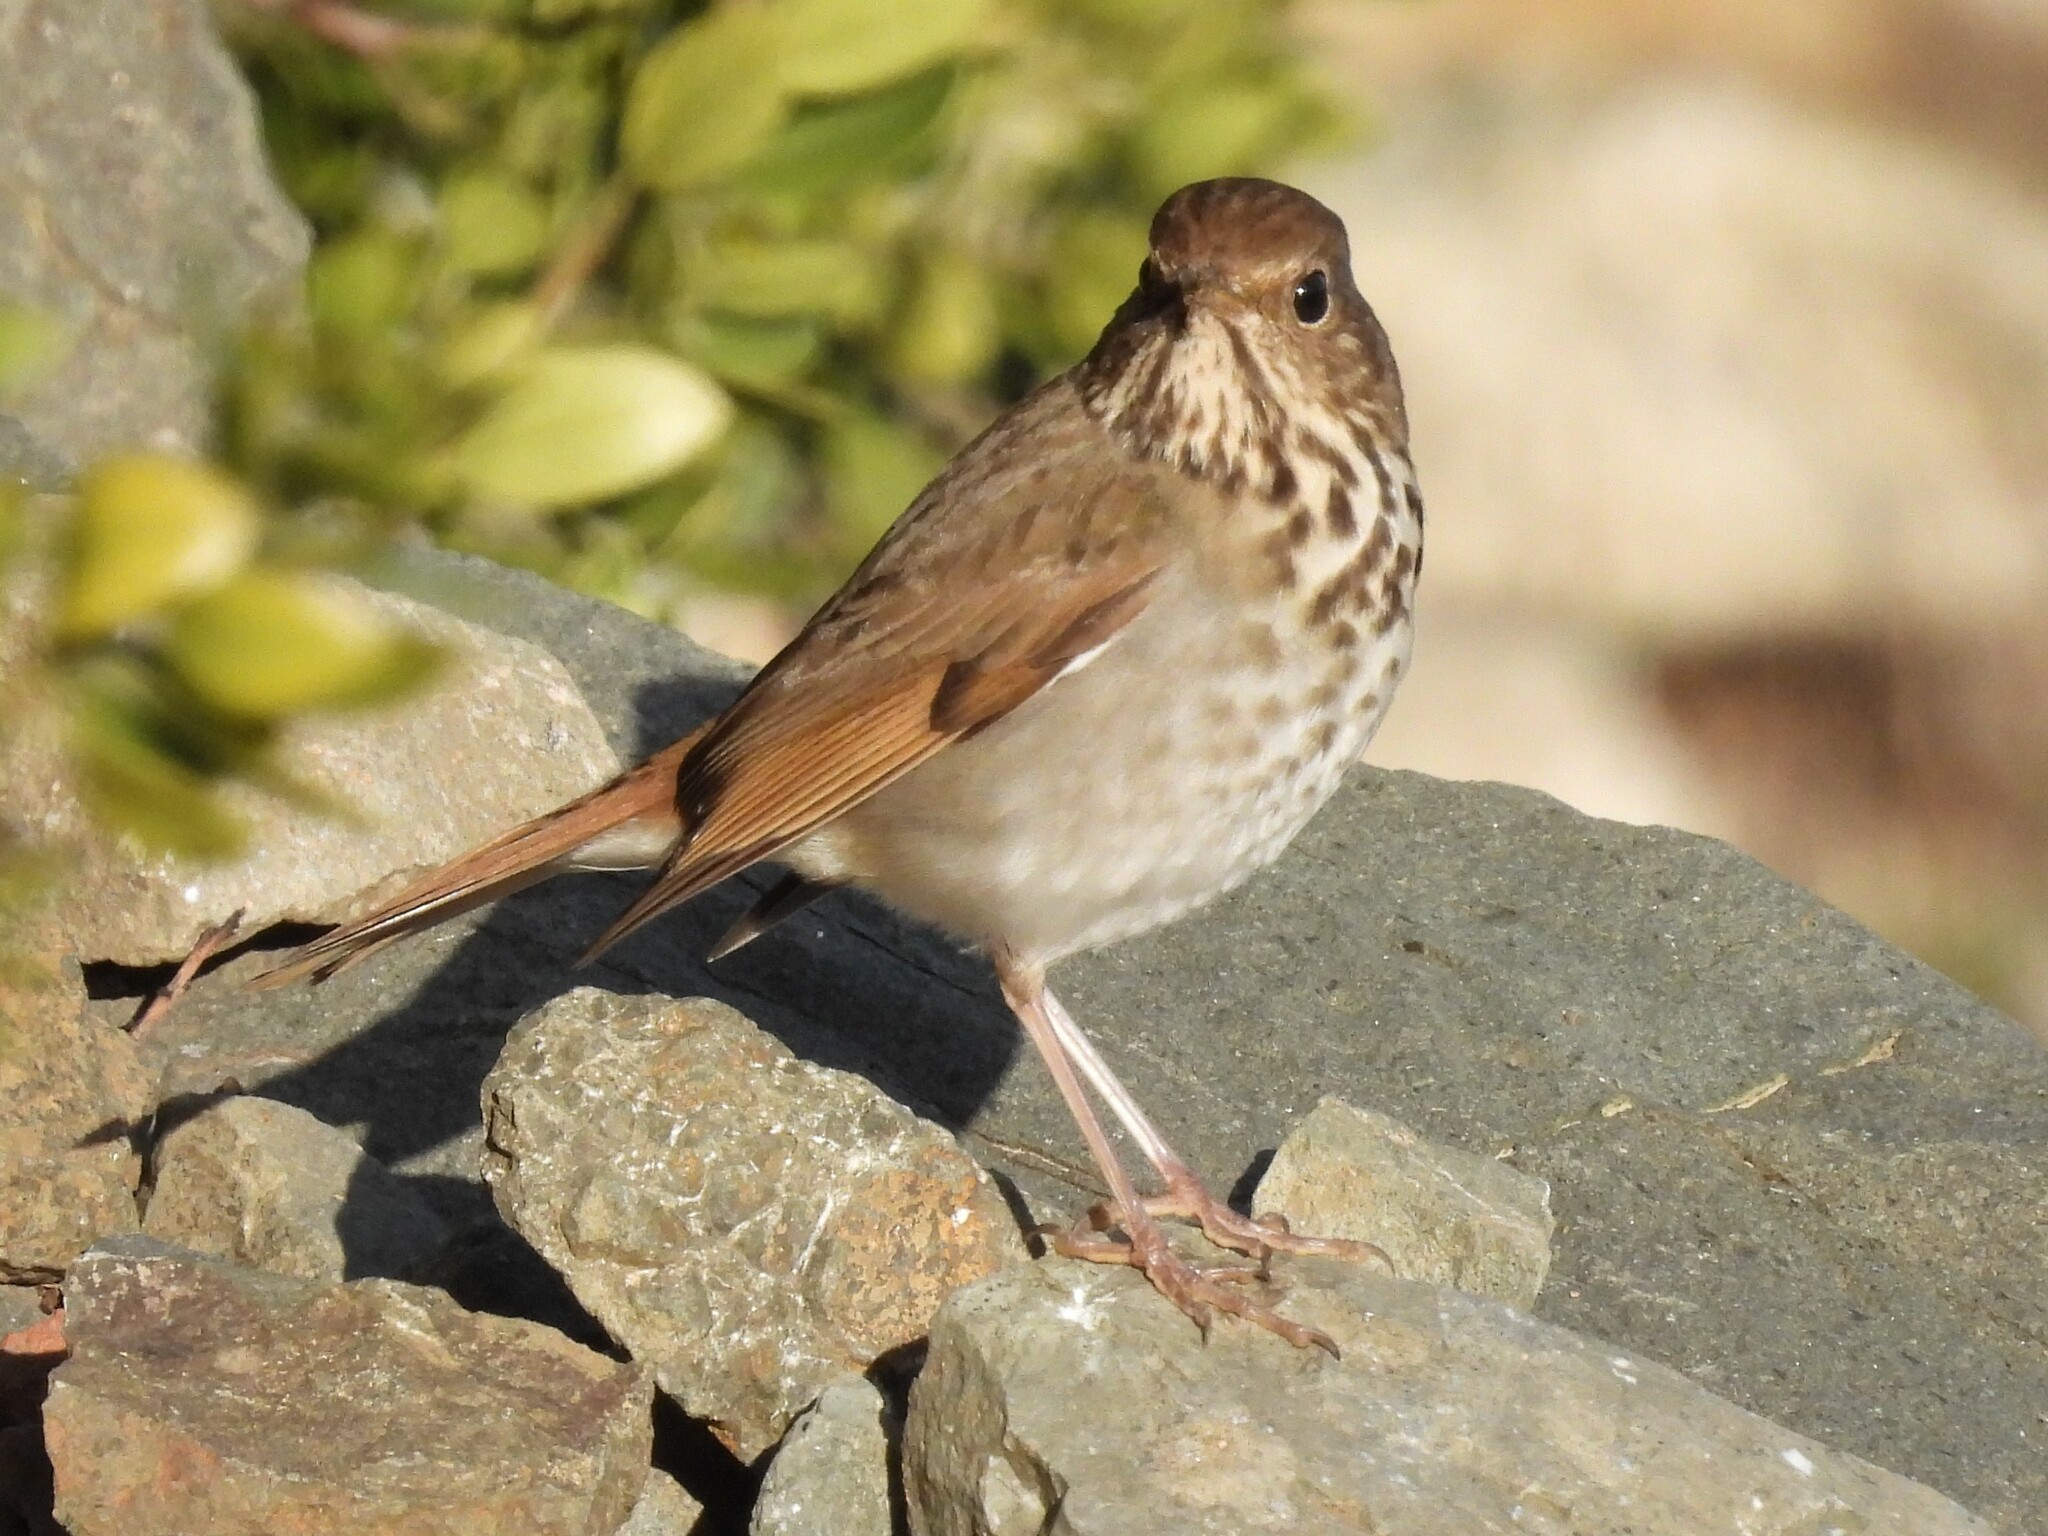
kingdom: Animalia
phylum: Chordata
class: Aves
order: Passeriformes
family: Turdidae
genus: Catharus
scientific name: Catharus guttatus
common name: Hermit thrush
